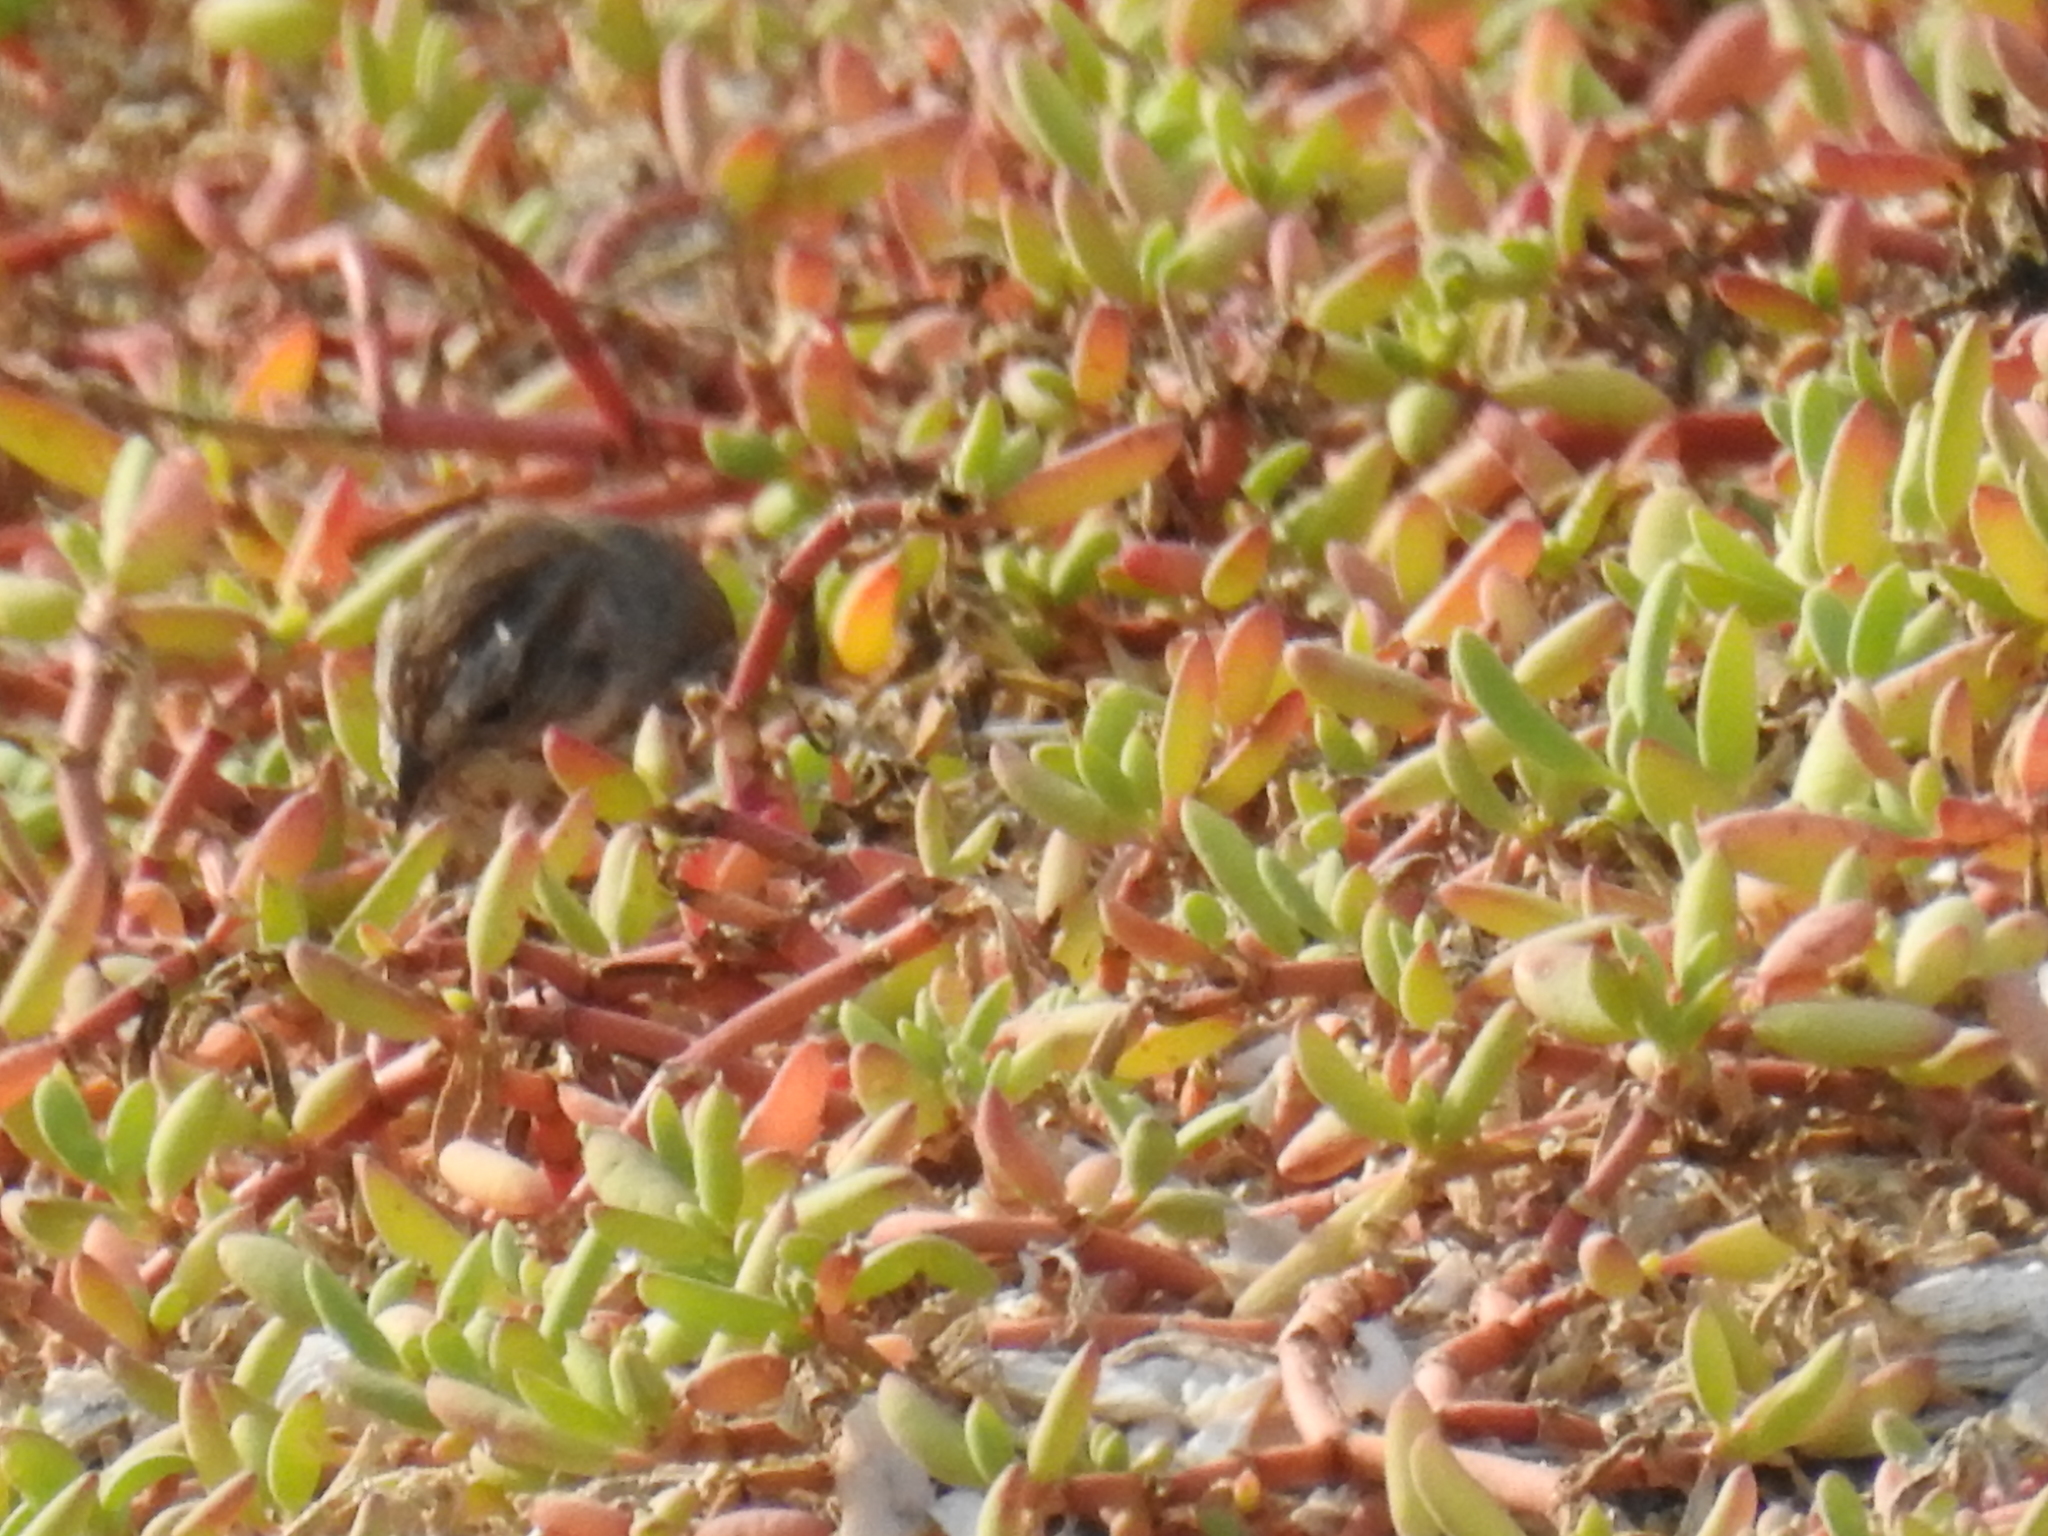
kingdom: Animalia
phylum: Chordata
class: Aves
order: Passeriformes
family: Passerellidae
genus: Melospiza
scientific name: Melospiza melodia
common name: Song sparrow
